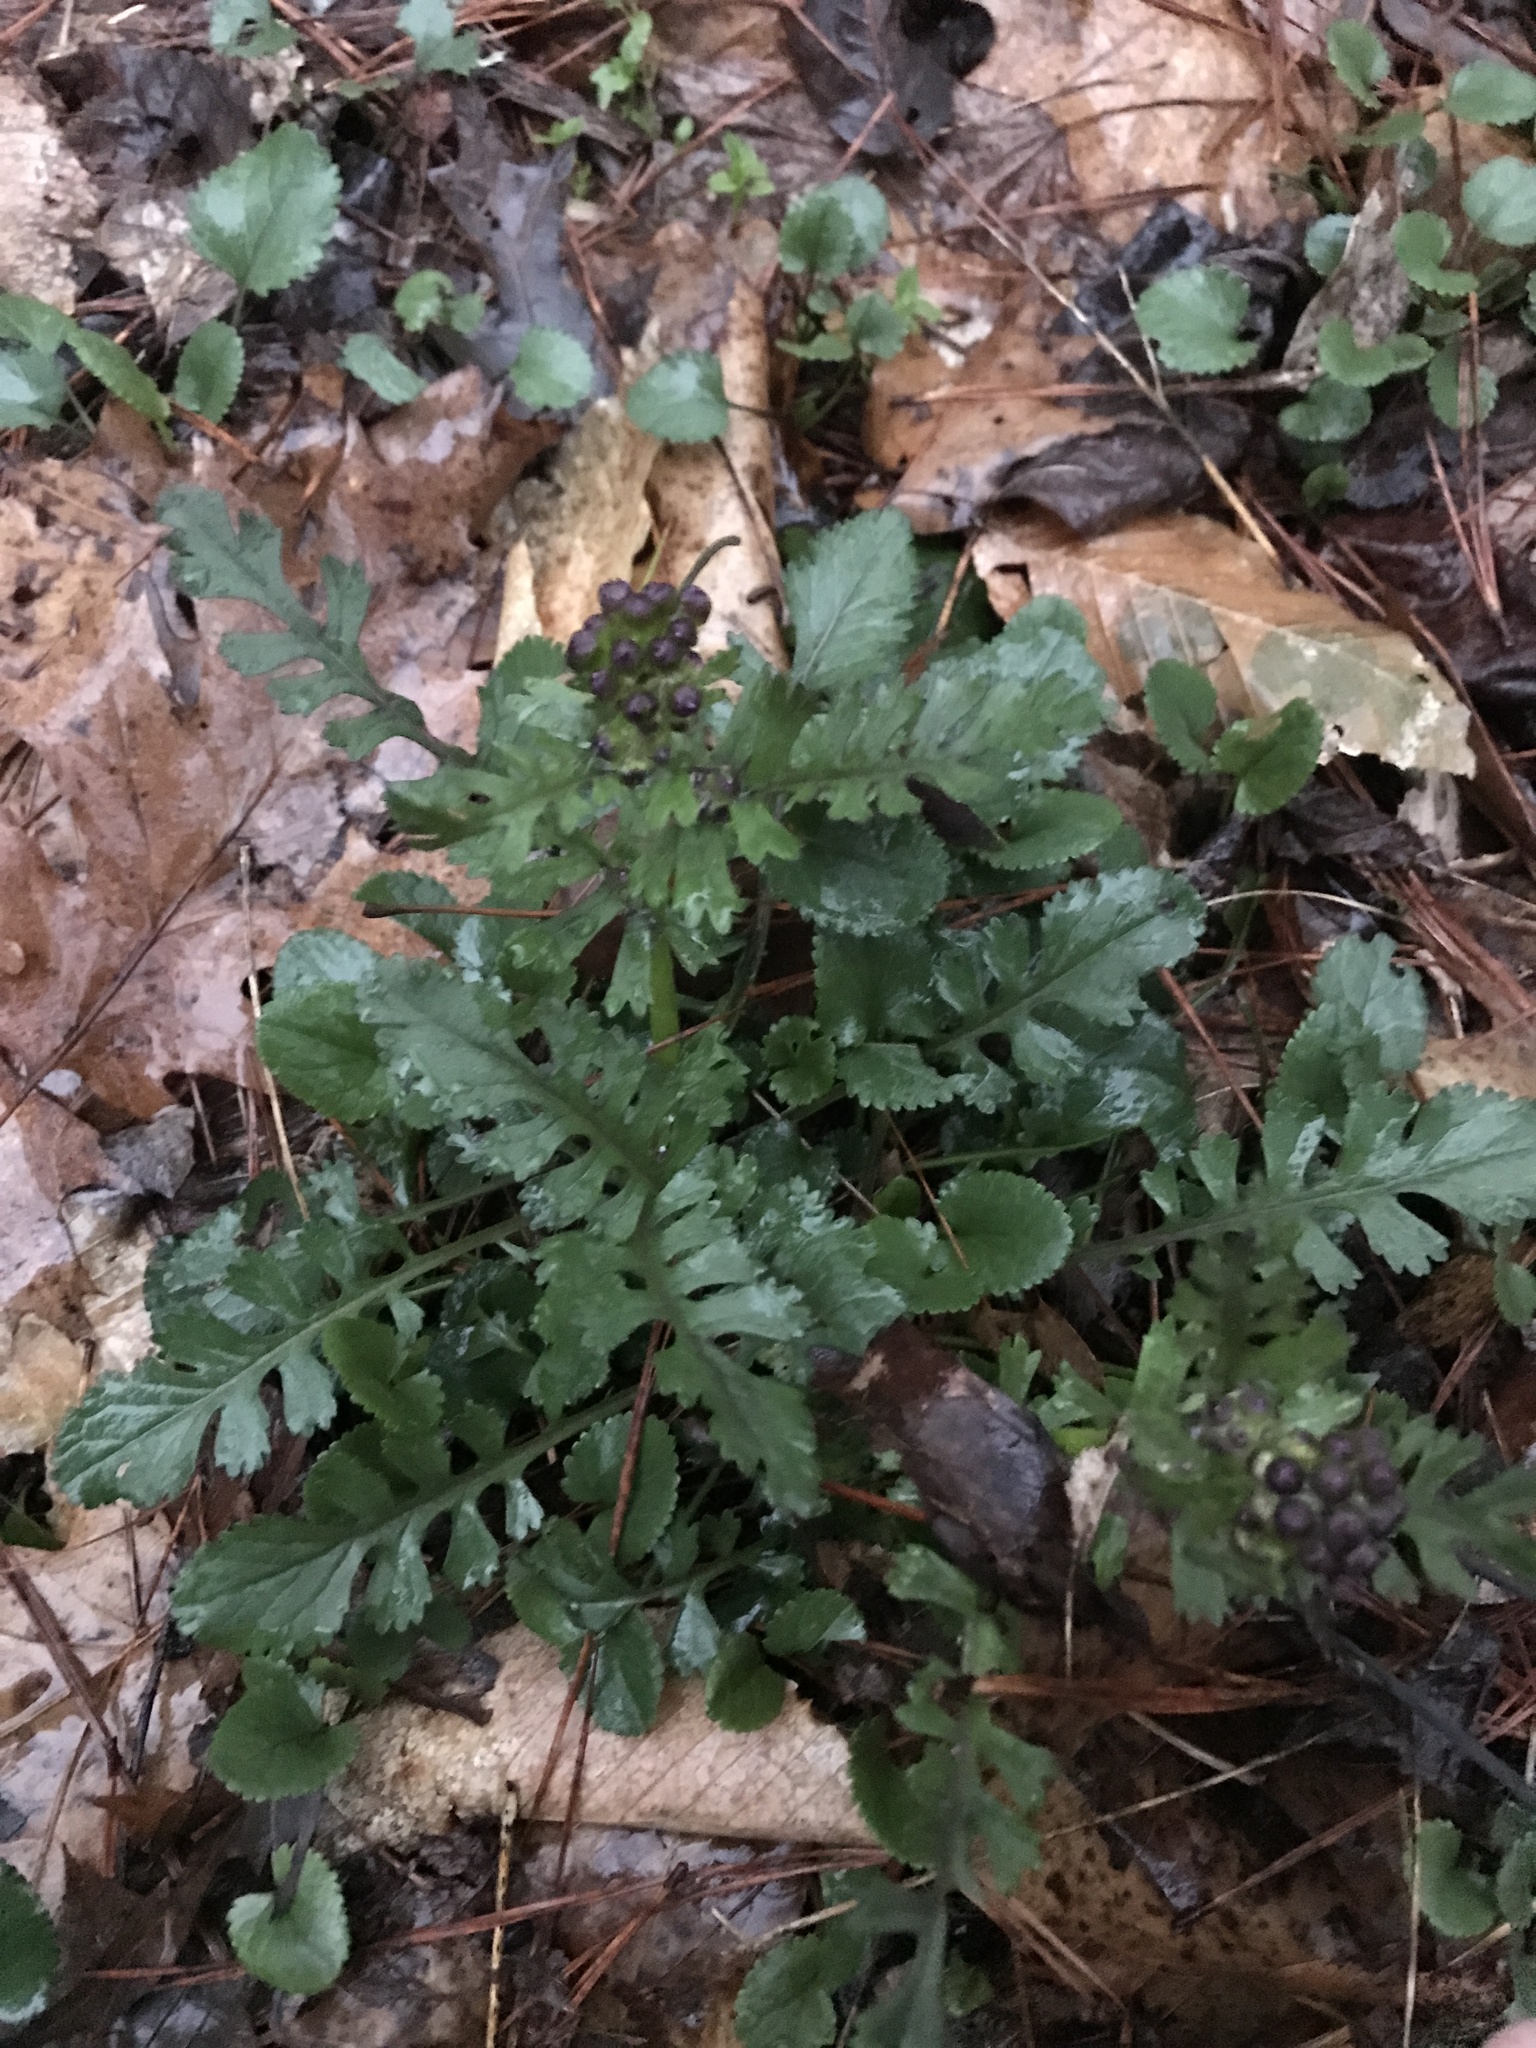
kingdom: Plantae
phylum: Tracheophyta
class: Magnoliopsida
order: Asterales
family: Asteraceae
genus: Packera
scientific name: Packera aurea
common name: Golden groundsel
